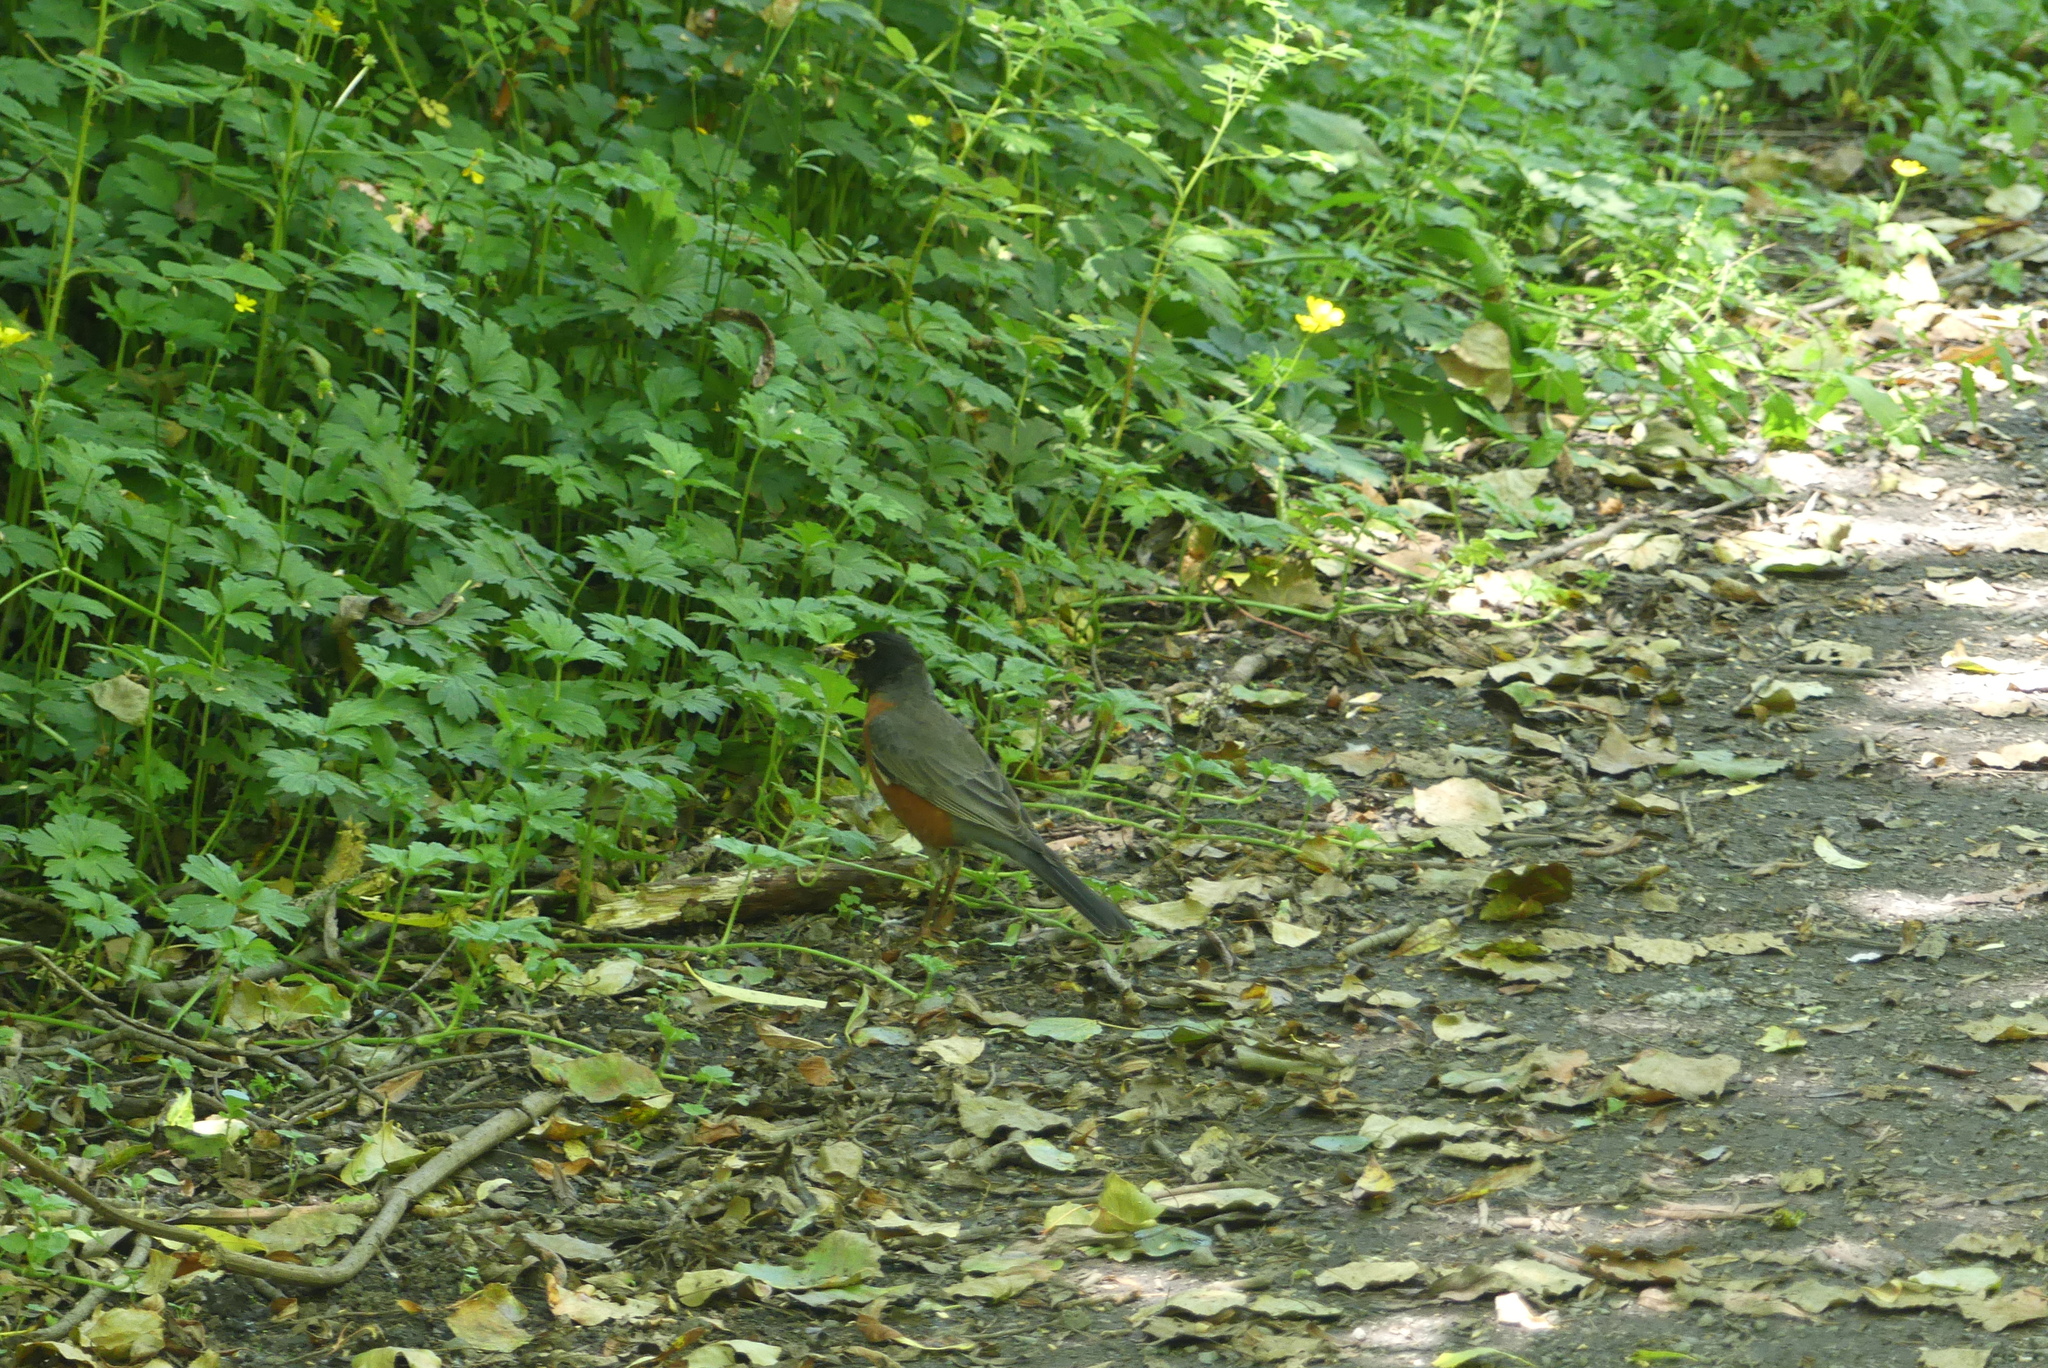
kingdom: Animalia
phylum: Chordata
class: Aves
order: Passeriformes
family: Turdidae
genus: Turdus
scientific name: Turdus migratorius
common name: American robin
